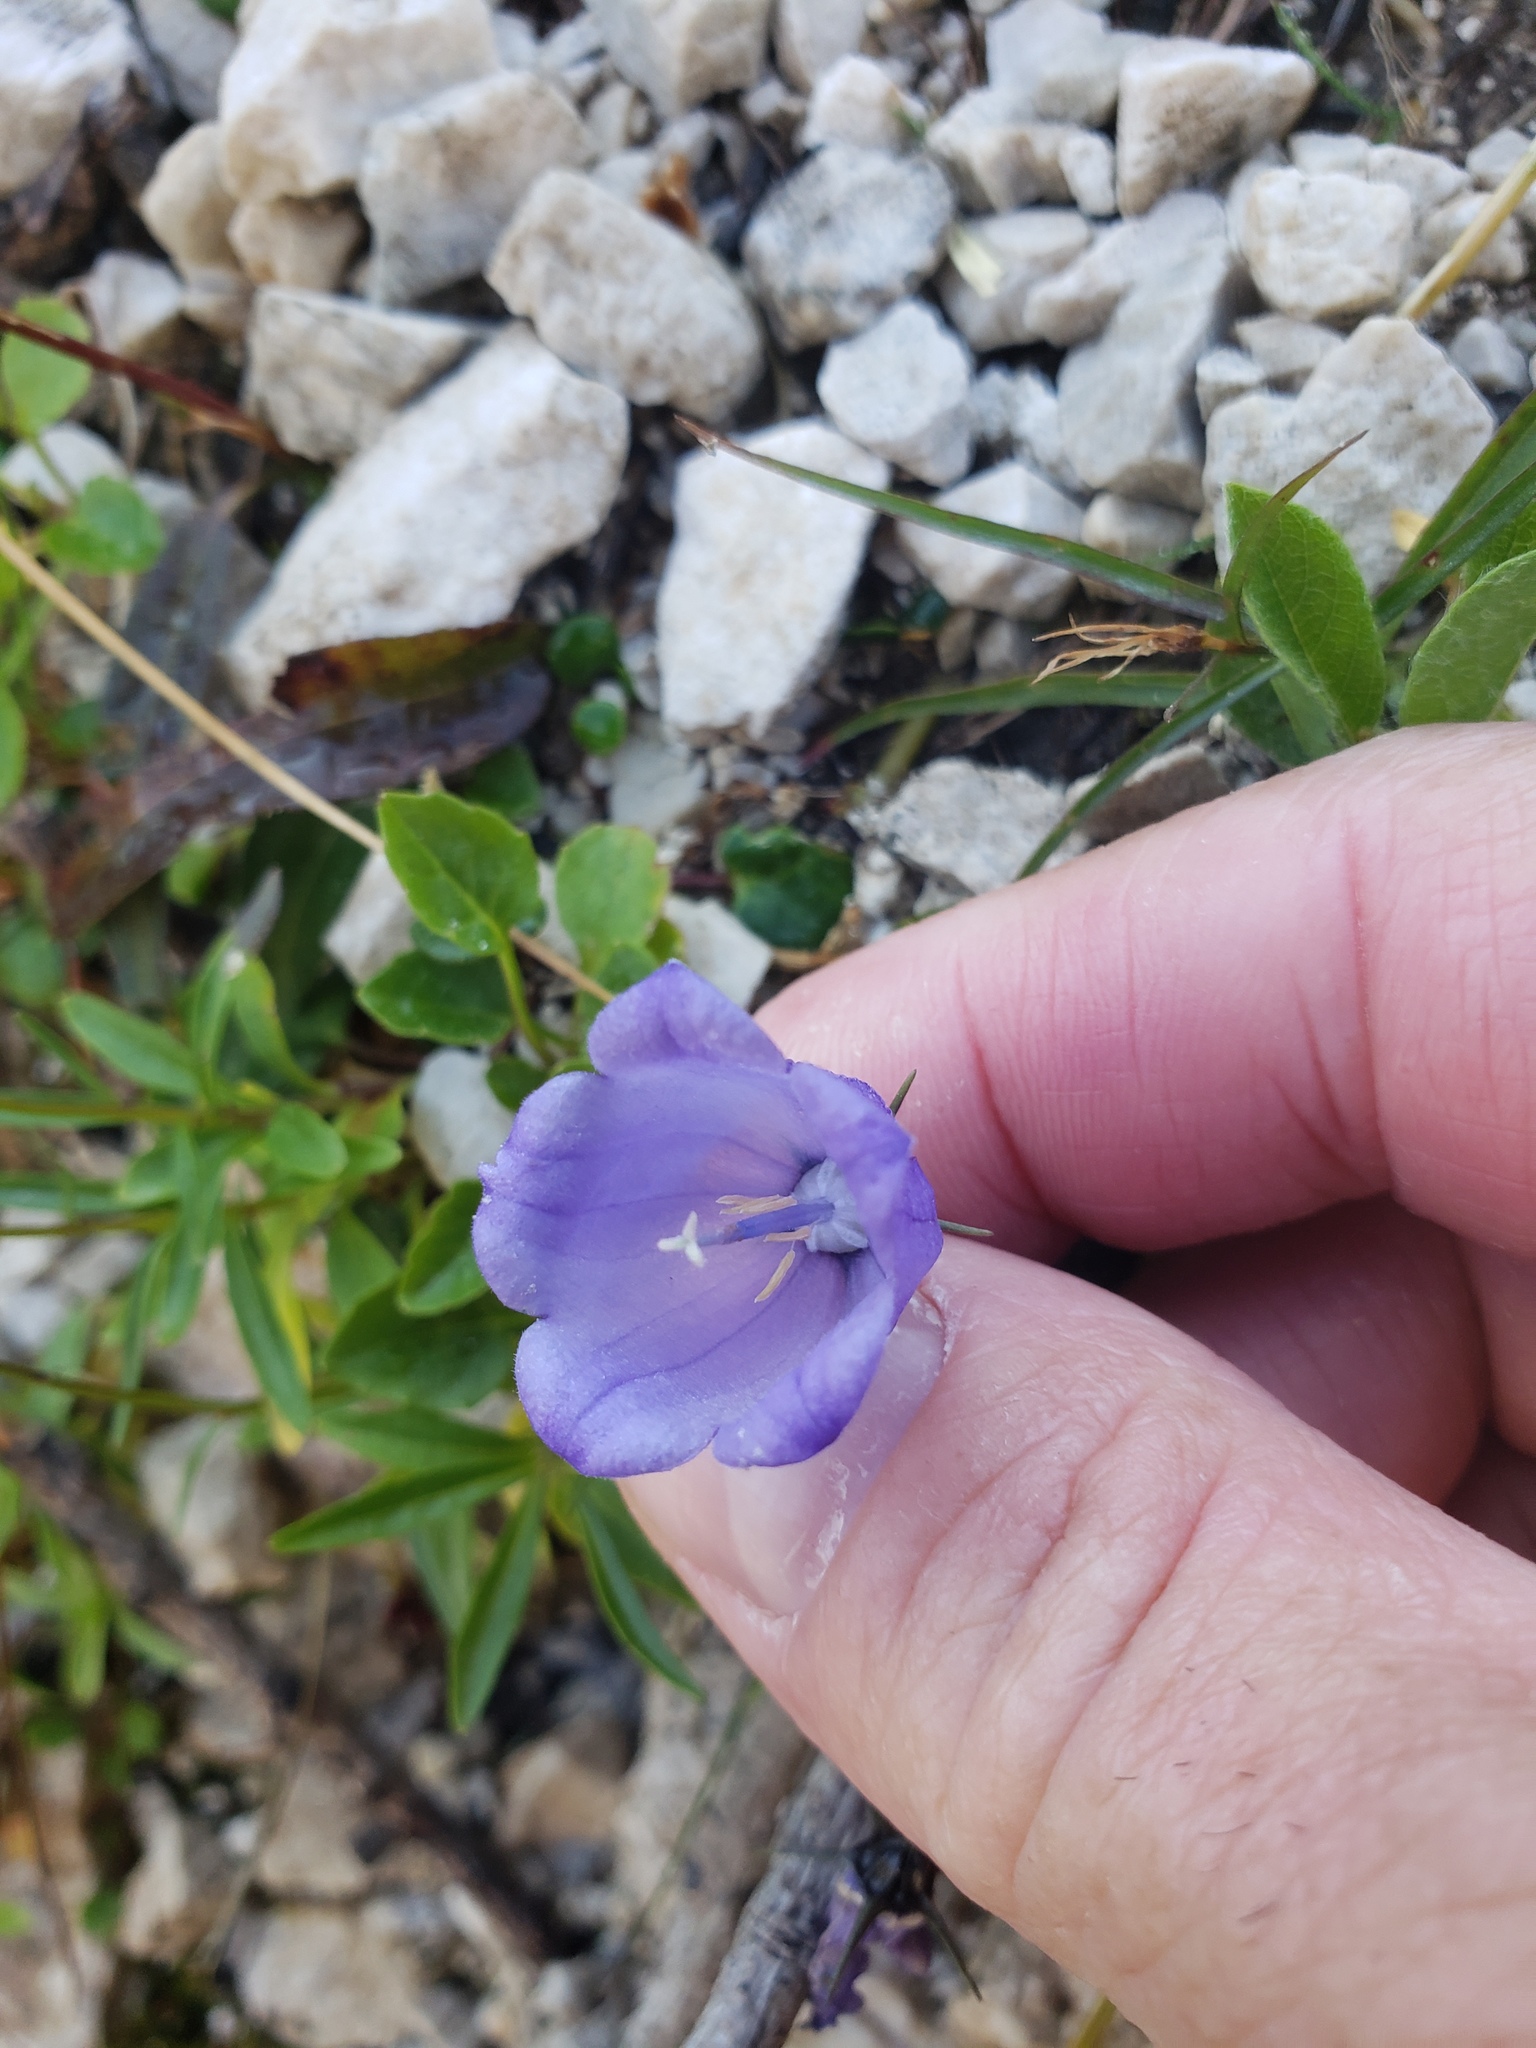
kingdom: Plantae
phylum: Tracheophyta
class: Magnoliopsida
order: Asterales
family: Campanulaceae
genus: Campanula
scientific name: Campanula cochleariifolia
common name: Fairies'-thimbles
